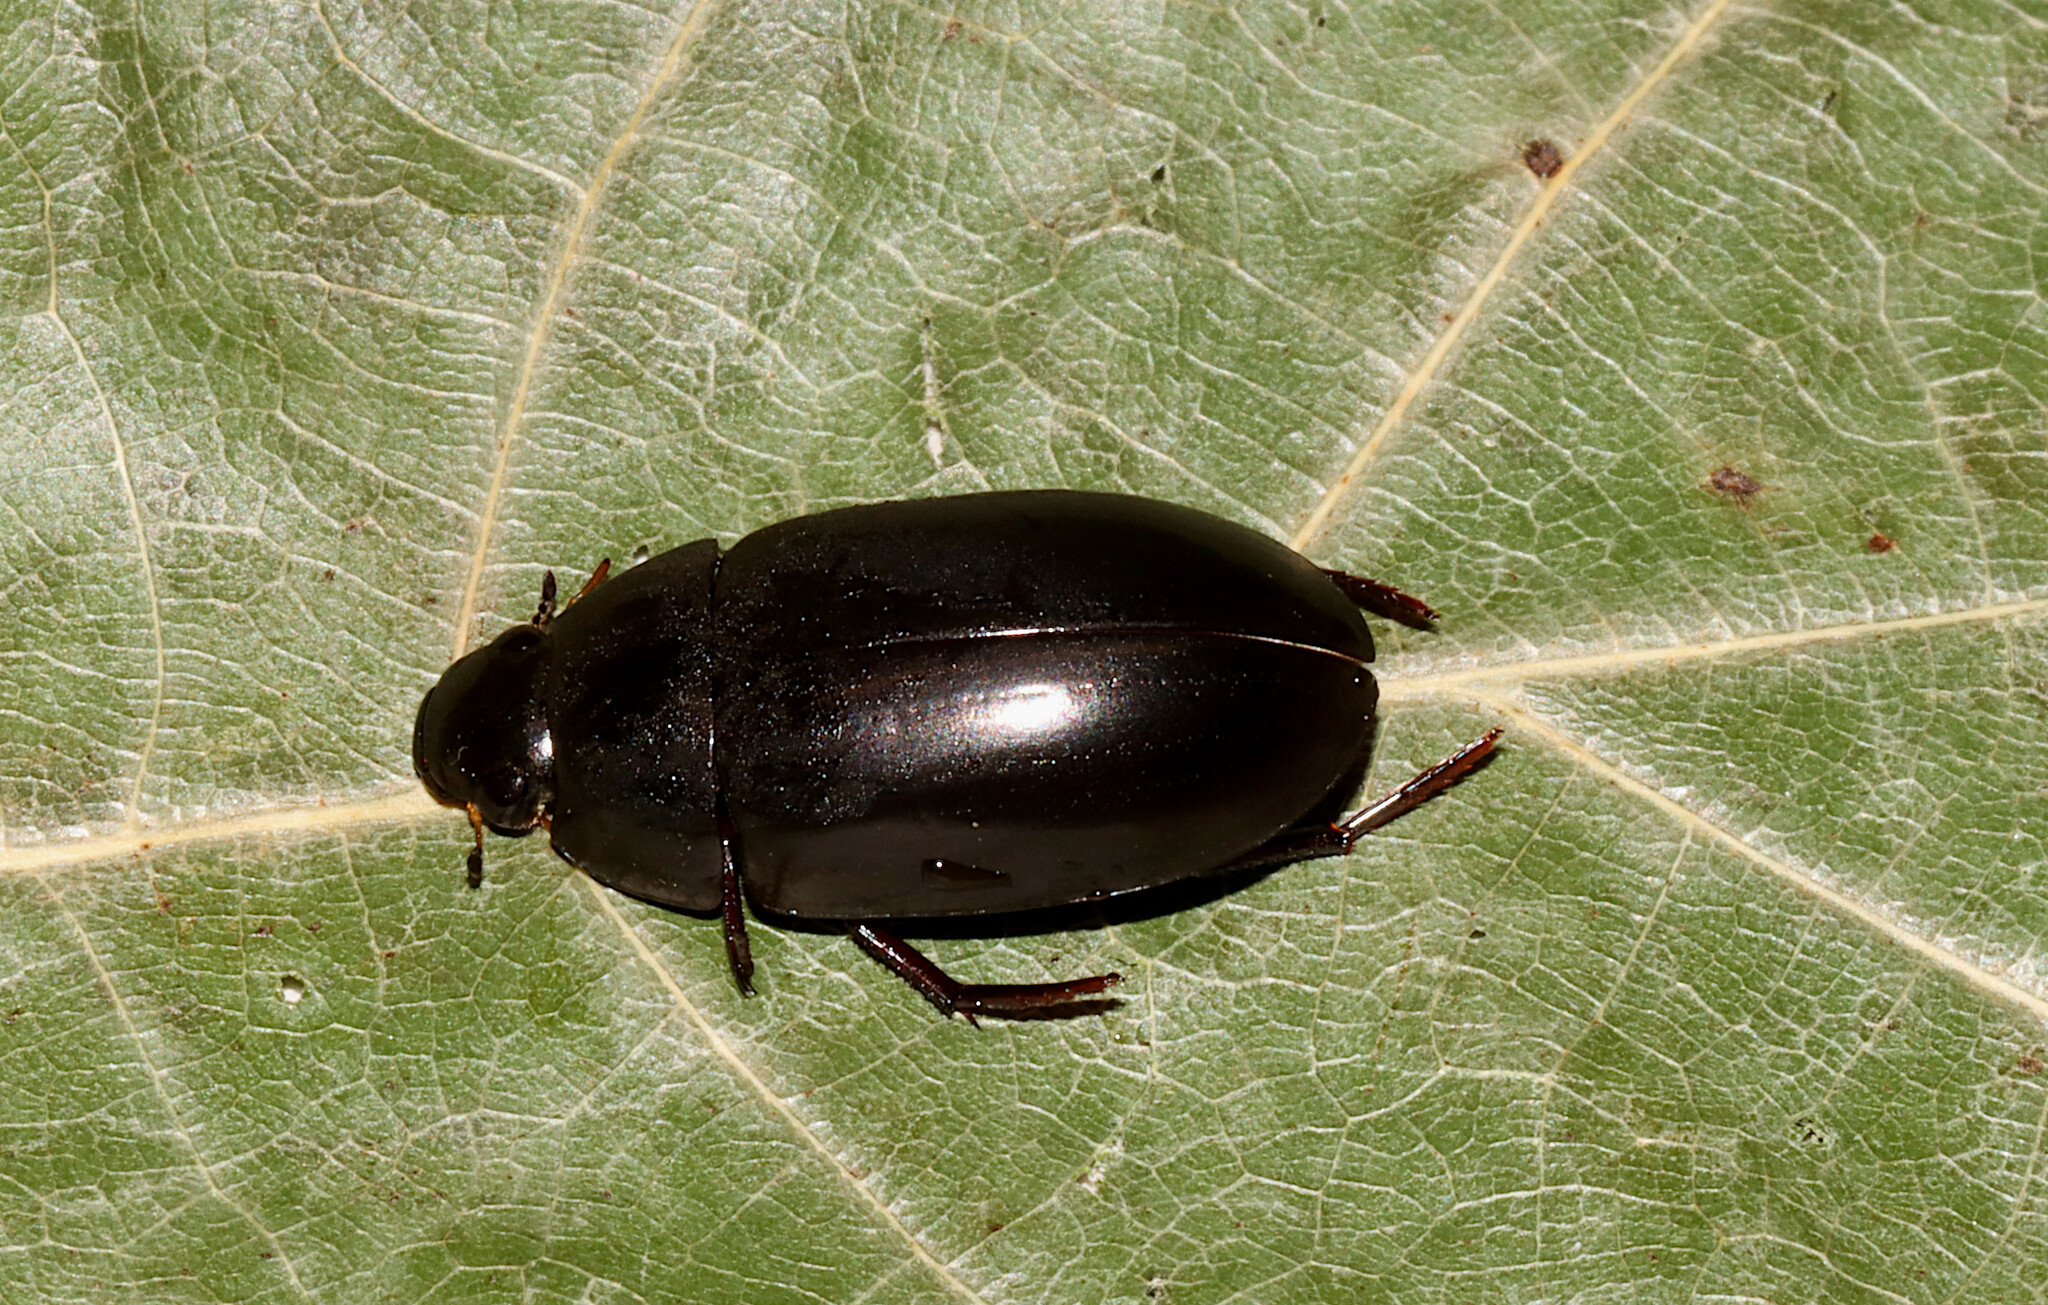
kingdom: Animalia
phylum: Arthropoda
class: Insecta
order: Coleoptera
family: Hydrophilidae
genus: Hydrochara
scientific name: Hydrochara
